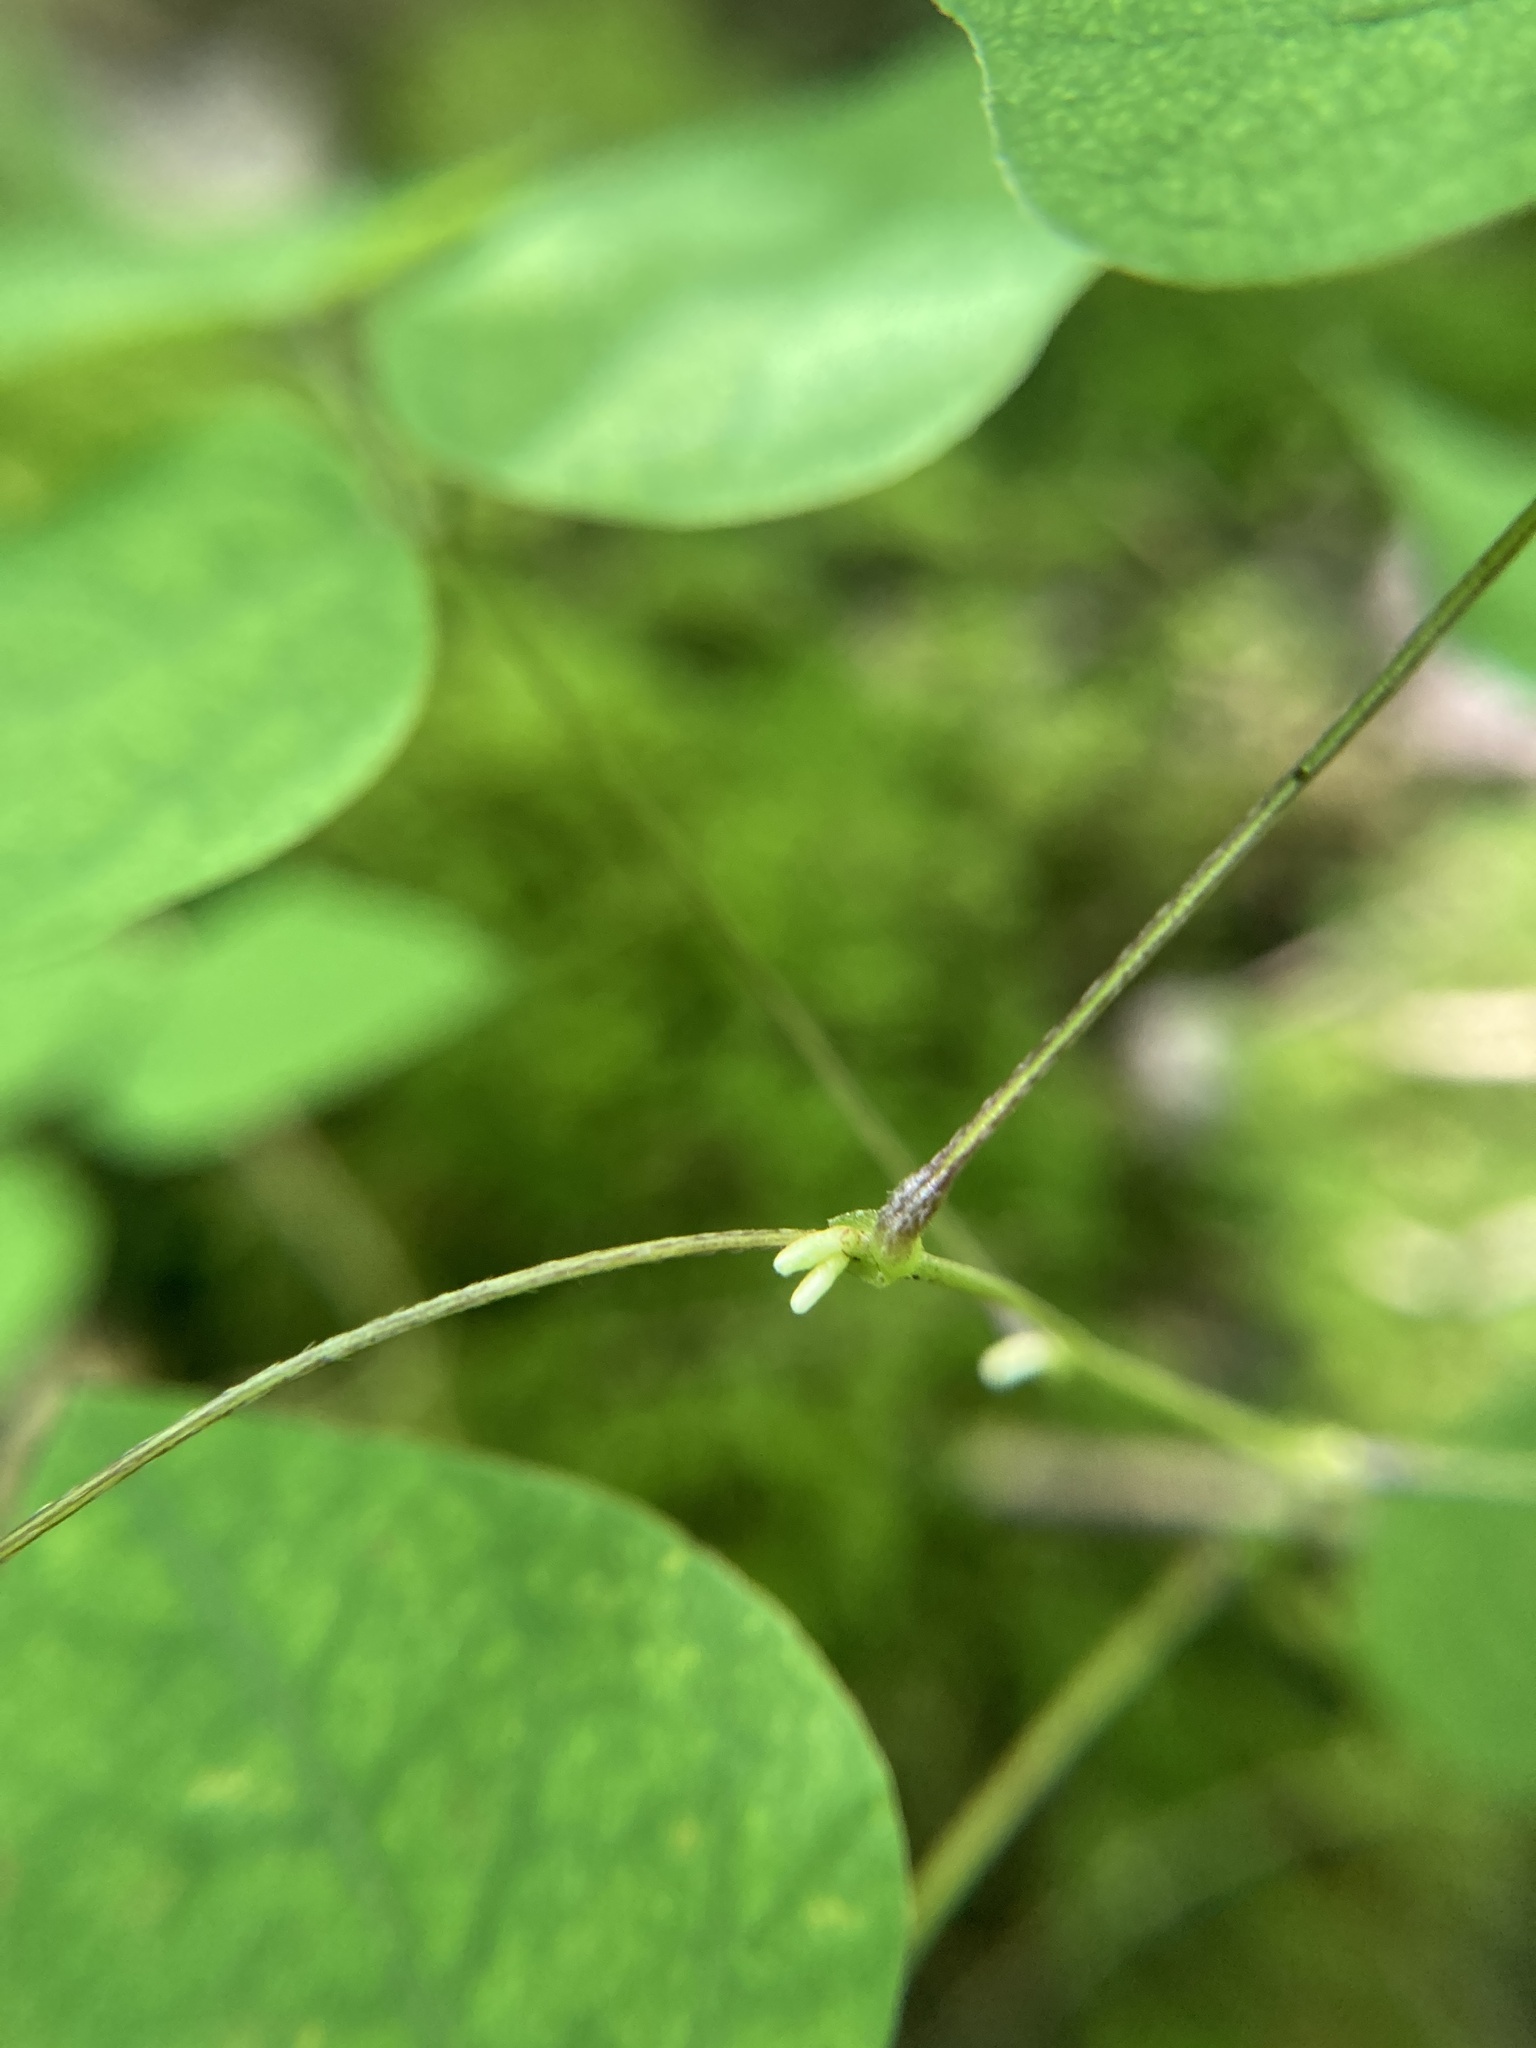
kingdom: Plantae
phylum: Tracheophyta
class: Magnoliopsida
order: Fabales
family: Fabaceae
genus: Amphicarpaea
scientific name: Amphicarpaea bracteata
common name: American hog peanut
